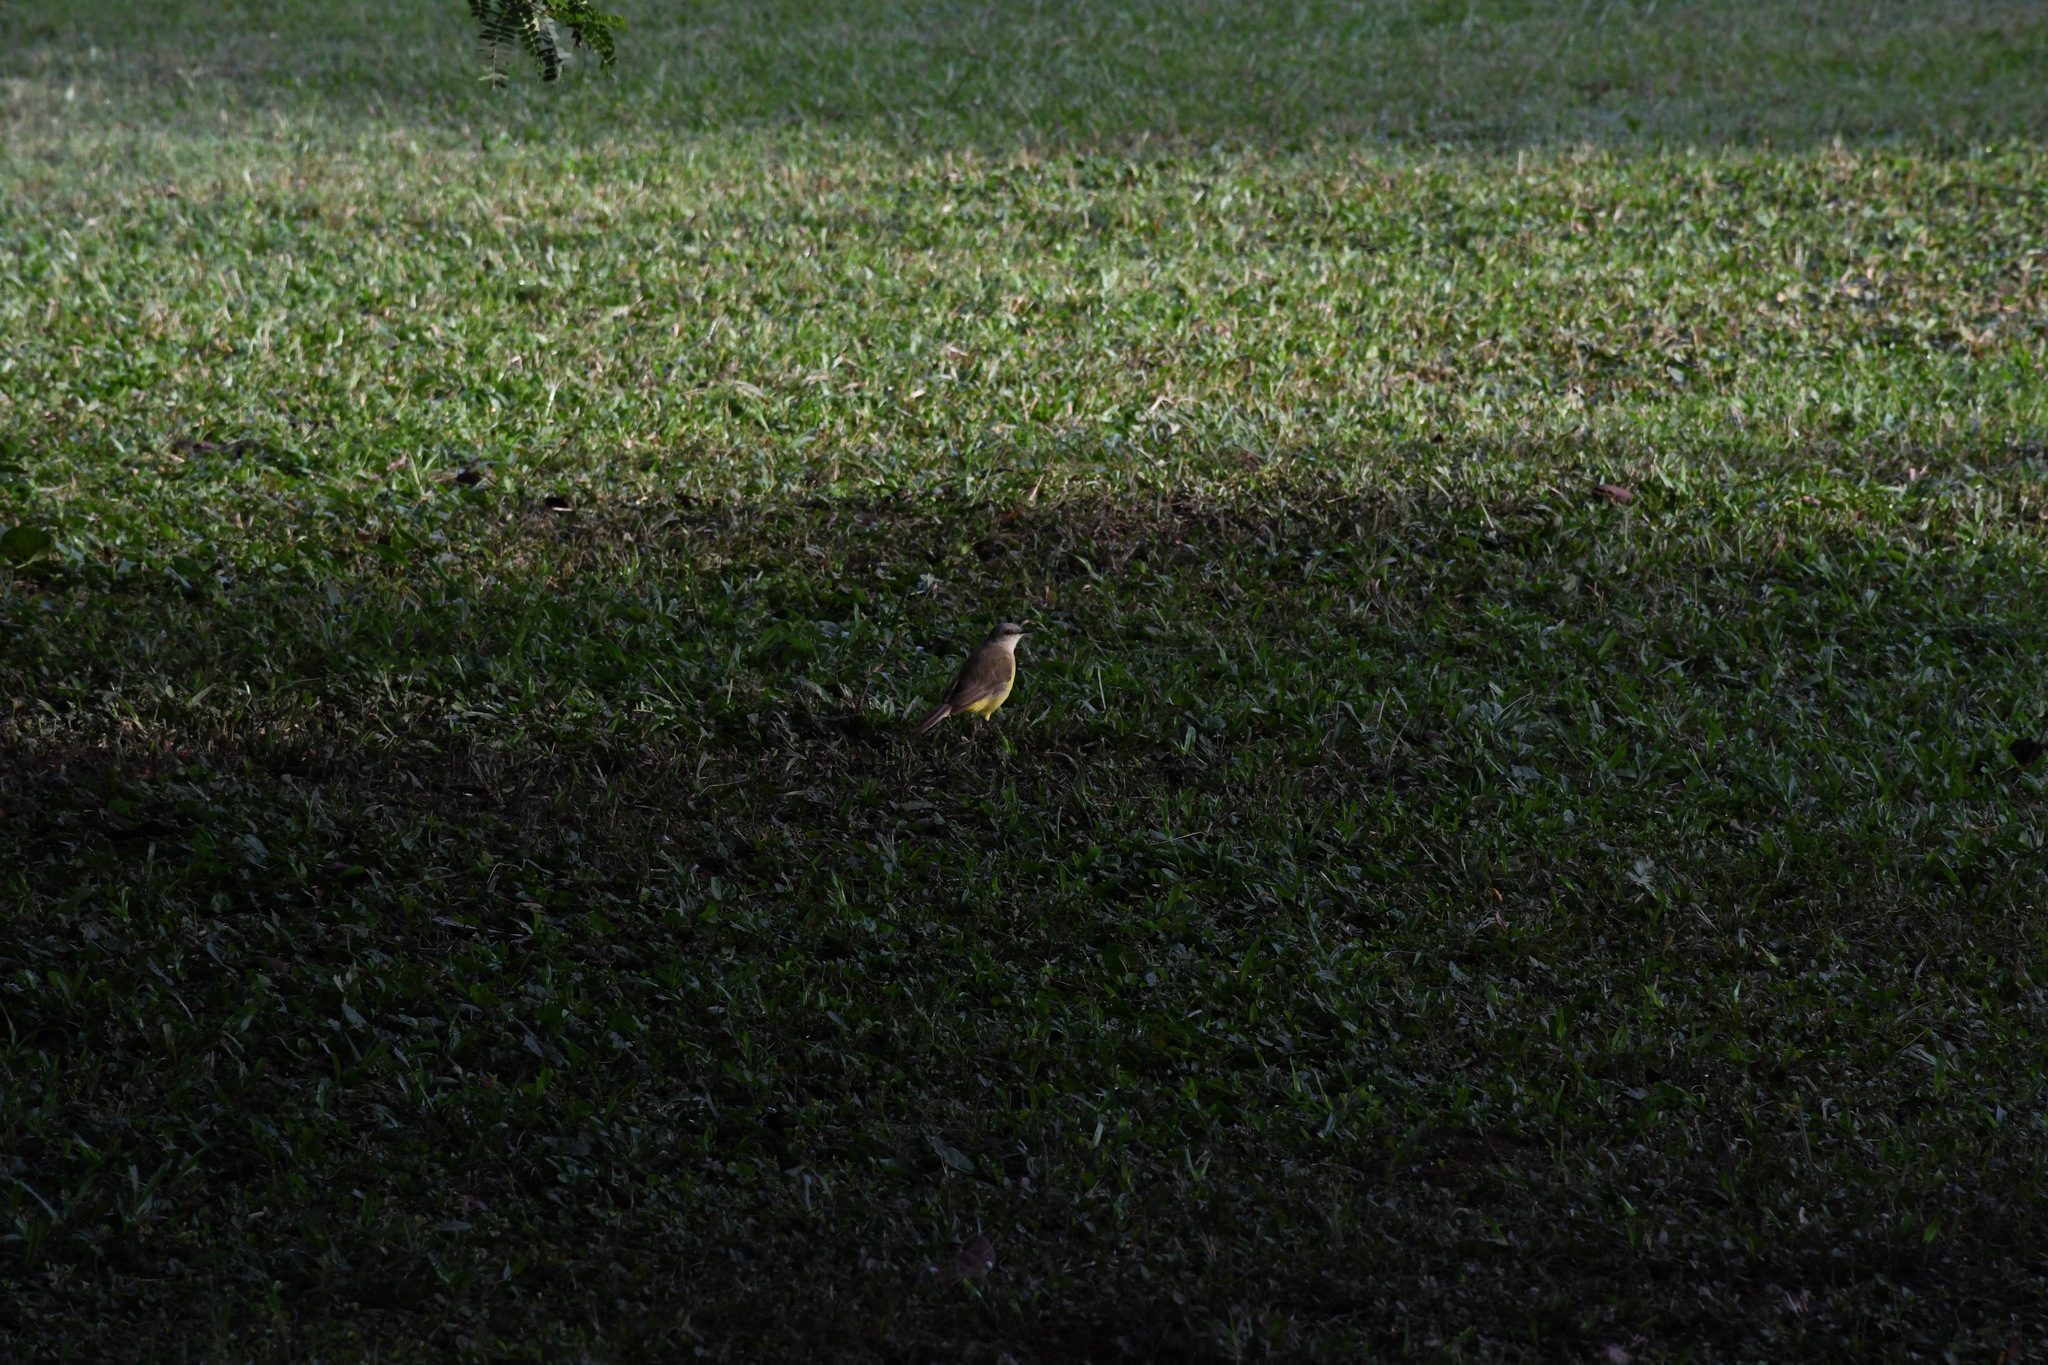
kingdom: Animalia
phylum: Chordata
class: Aves
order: Passeriformes
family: Tyrannidae
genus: Machetornis
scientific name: Machetornis rixosa
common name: Cattle tyrant
